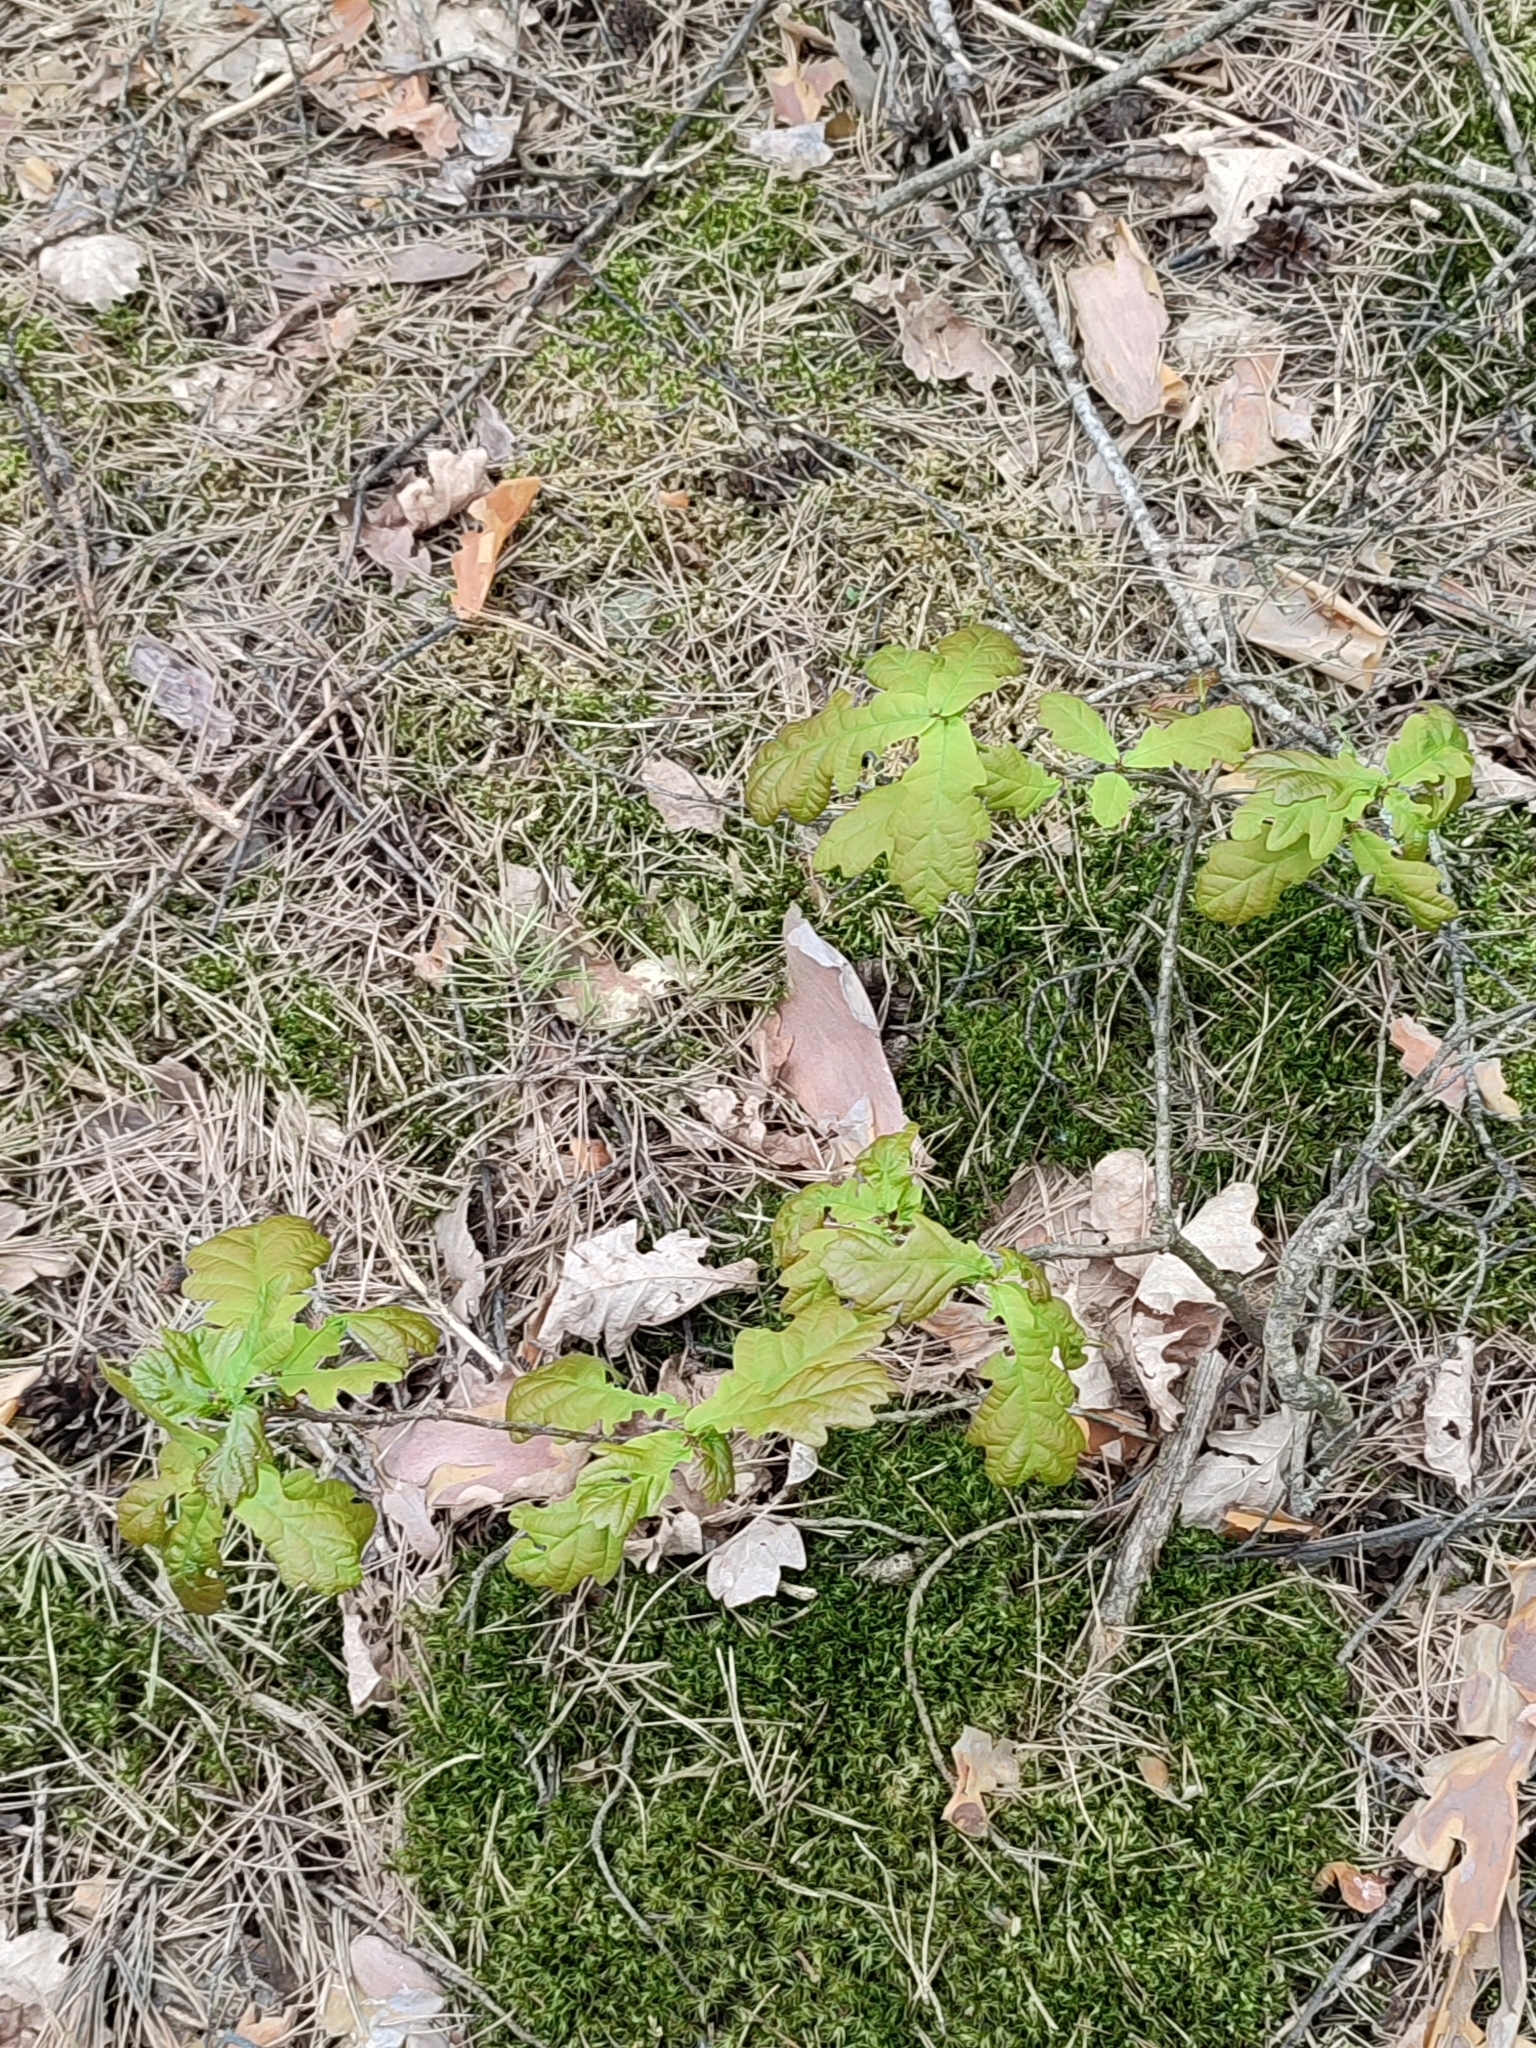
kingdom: Plantae
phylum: Tracheophyta
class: Magnoliopsida
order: Fagales
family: Fagaceae
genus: Quercus
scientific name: Quercus robur
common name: Pedunculate oak
